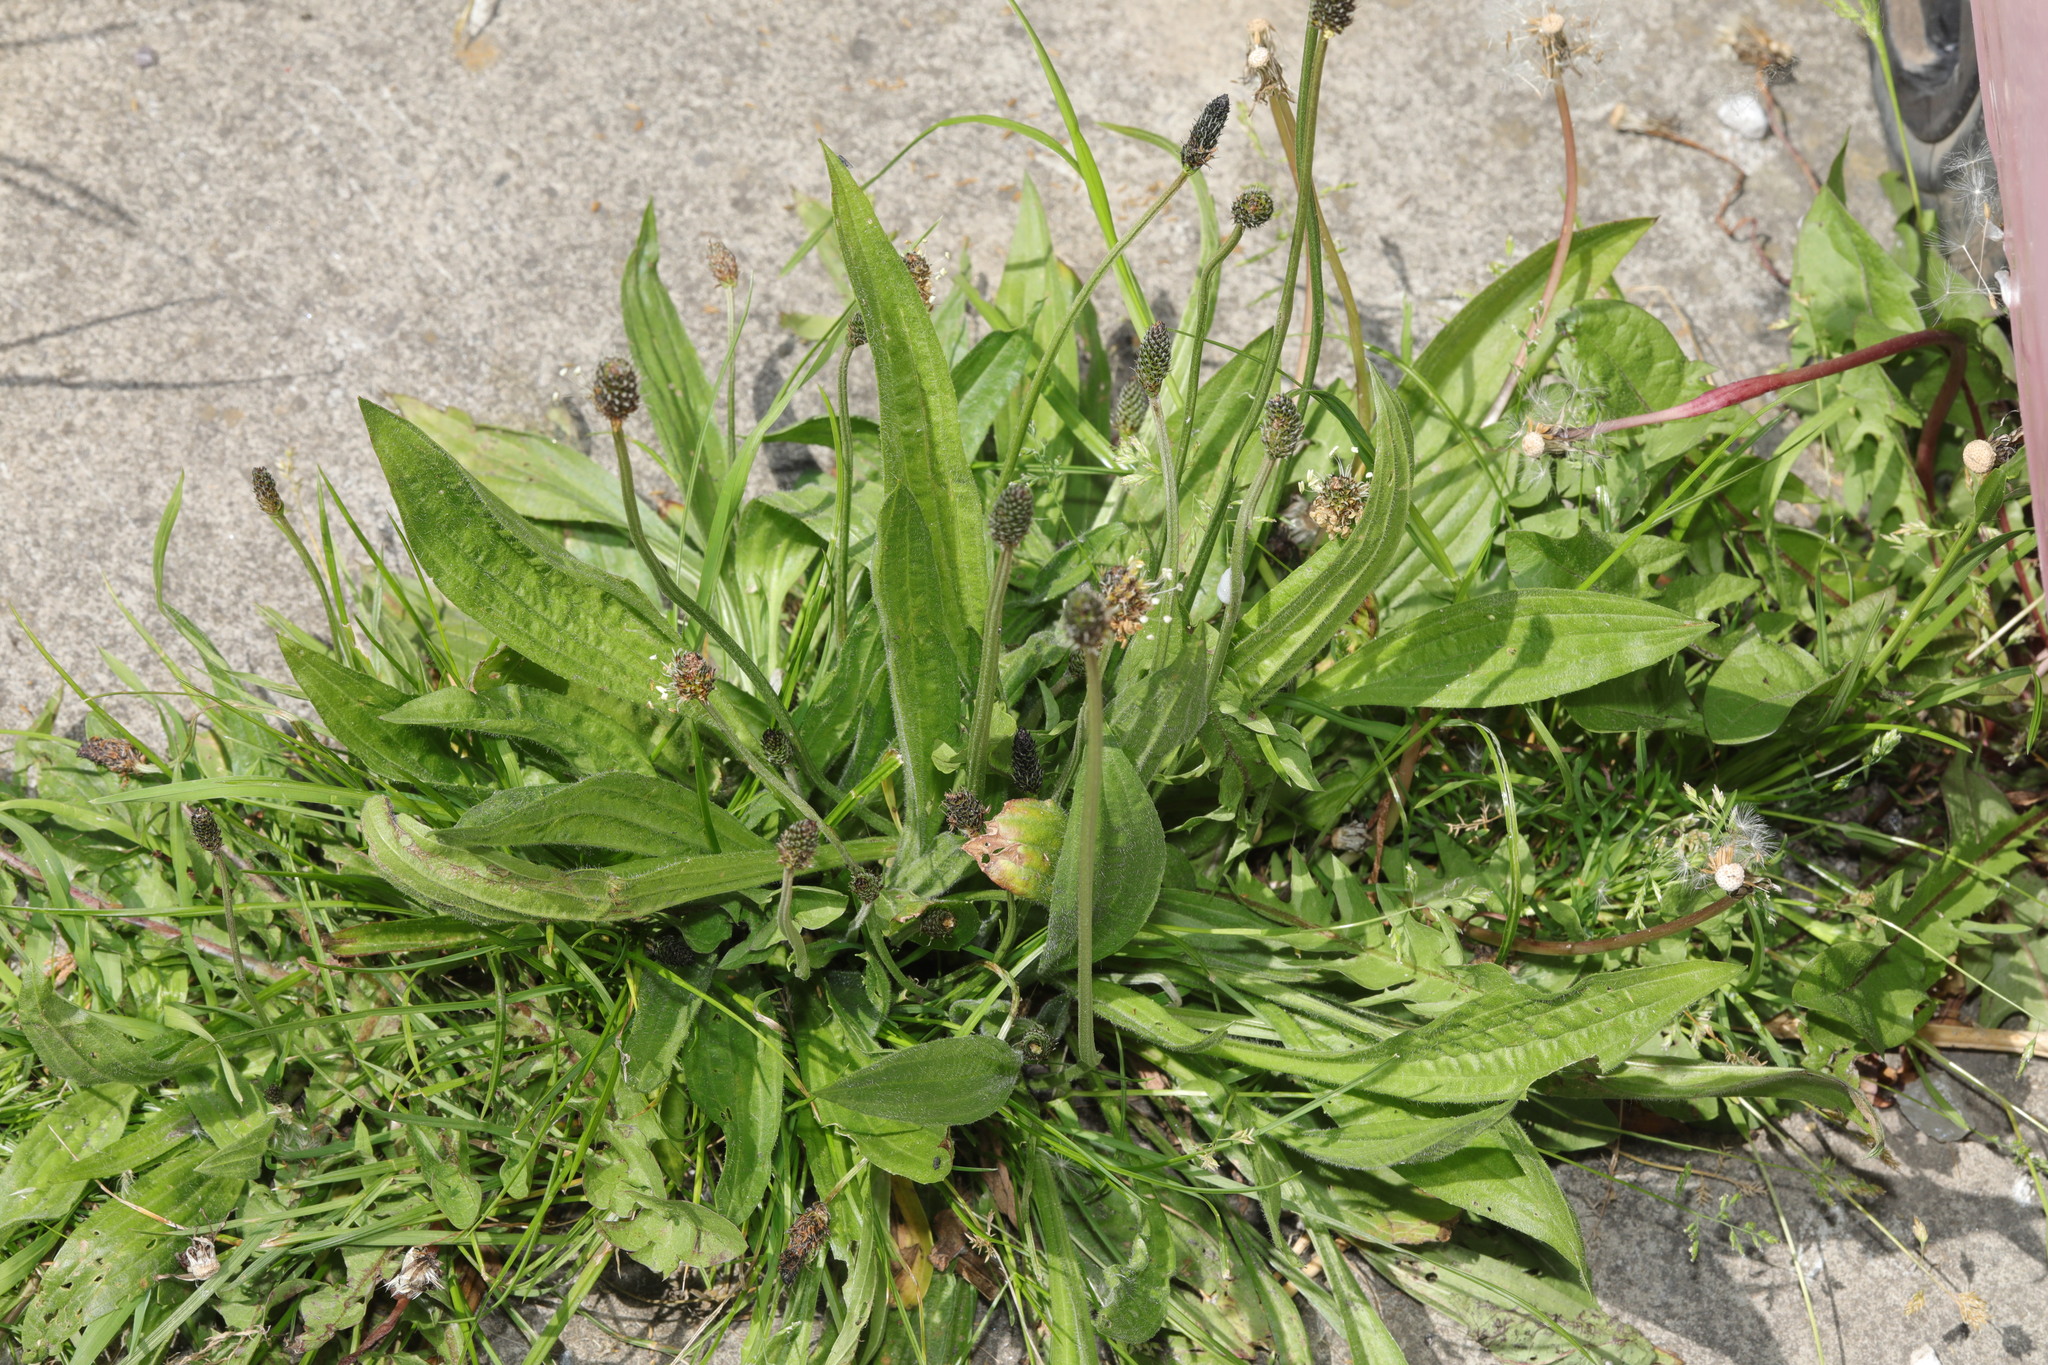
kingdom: Plantae
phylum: Tracheophyta
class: Magnoliopsida
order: Lamiales
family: Plantaginaceae
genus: Plantago
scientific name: Plantago lanceolata
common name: Ribwort plantain
